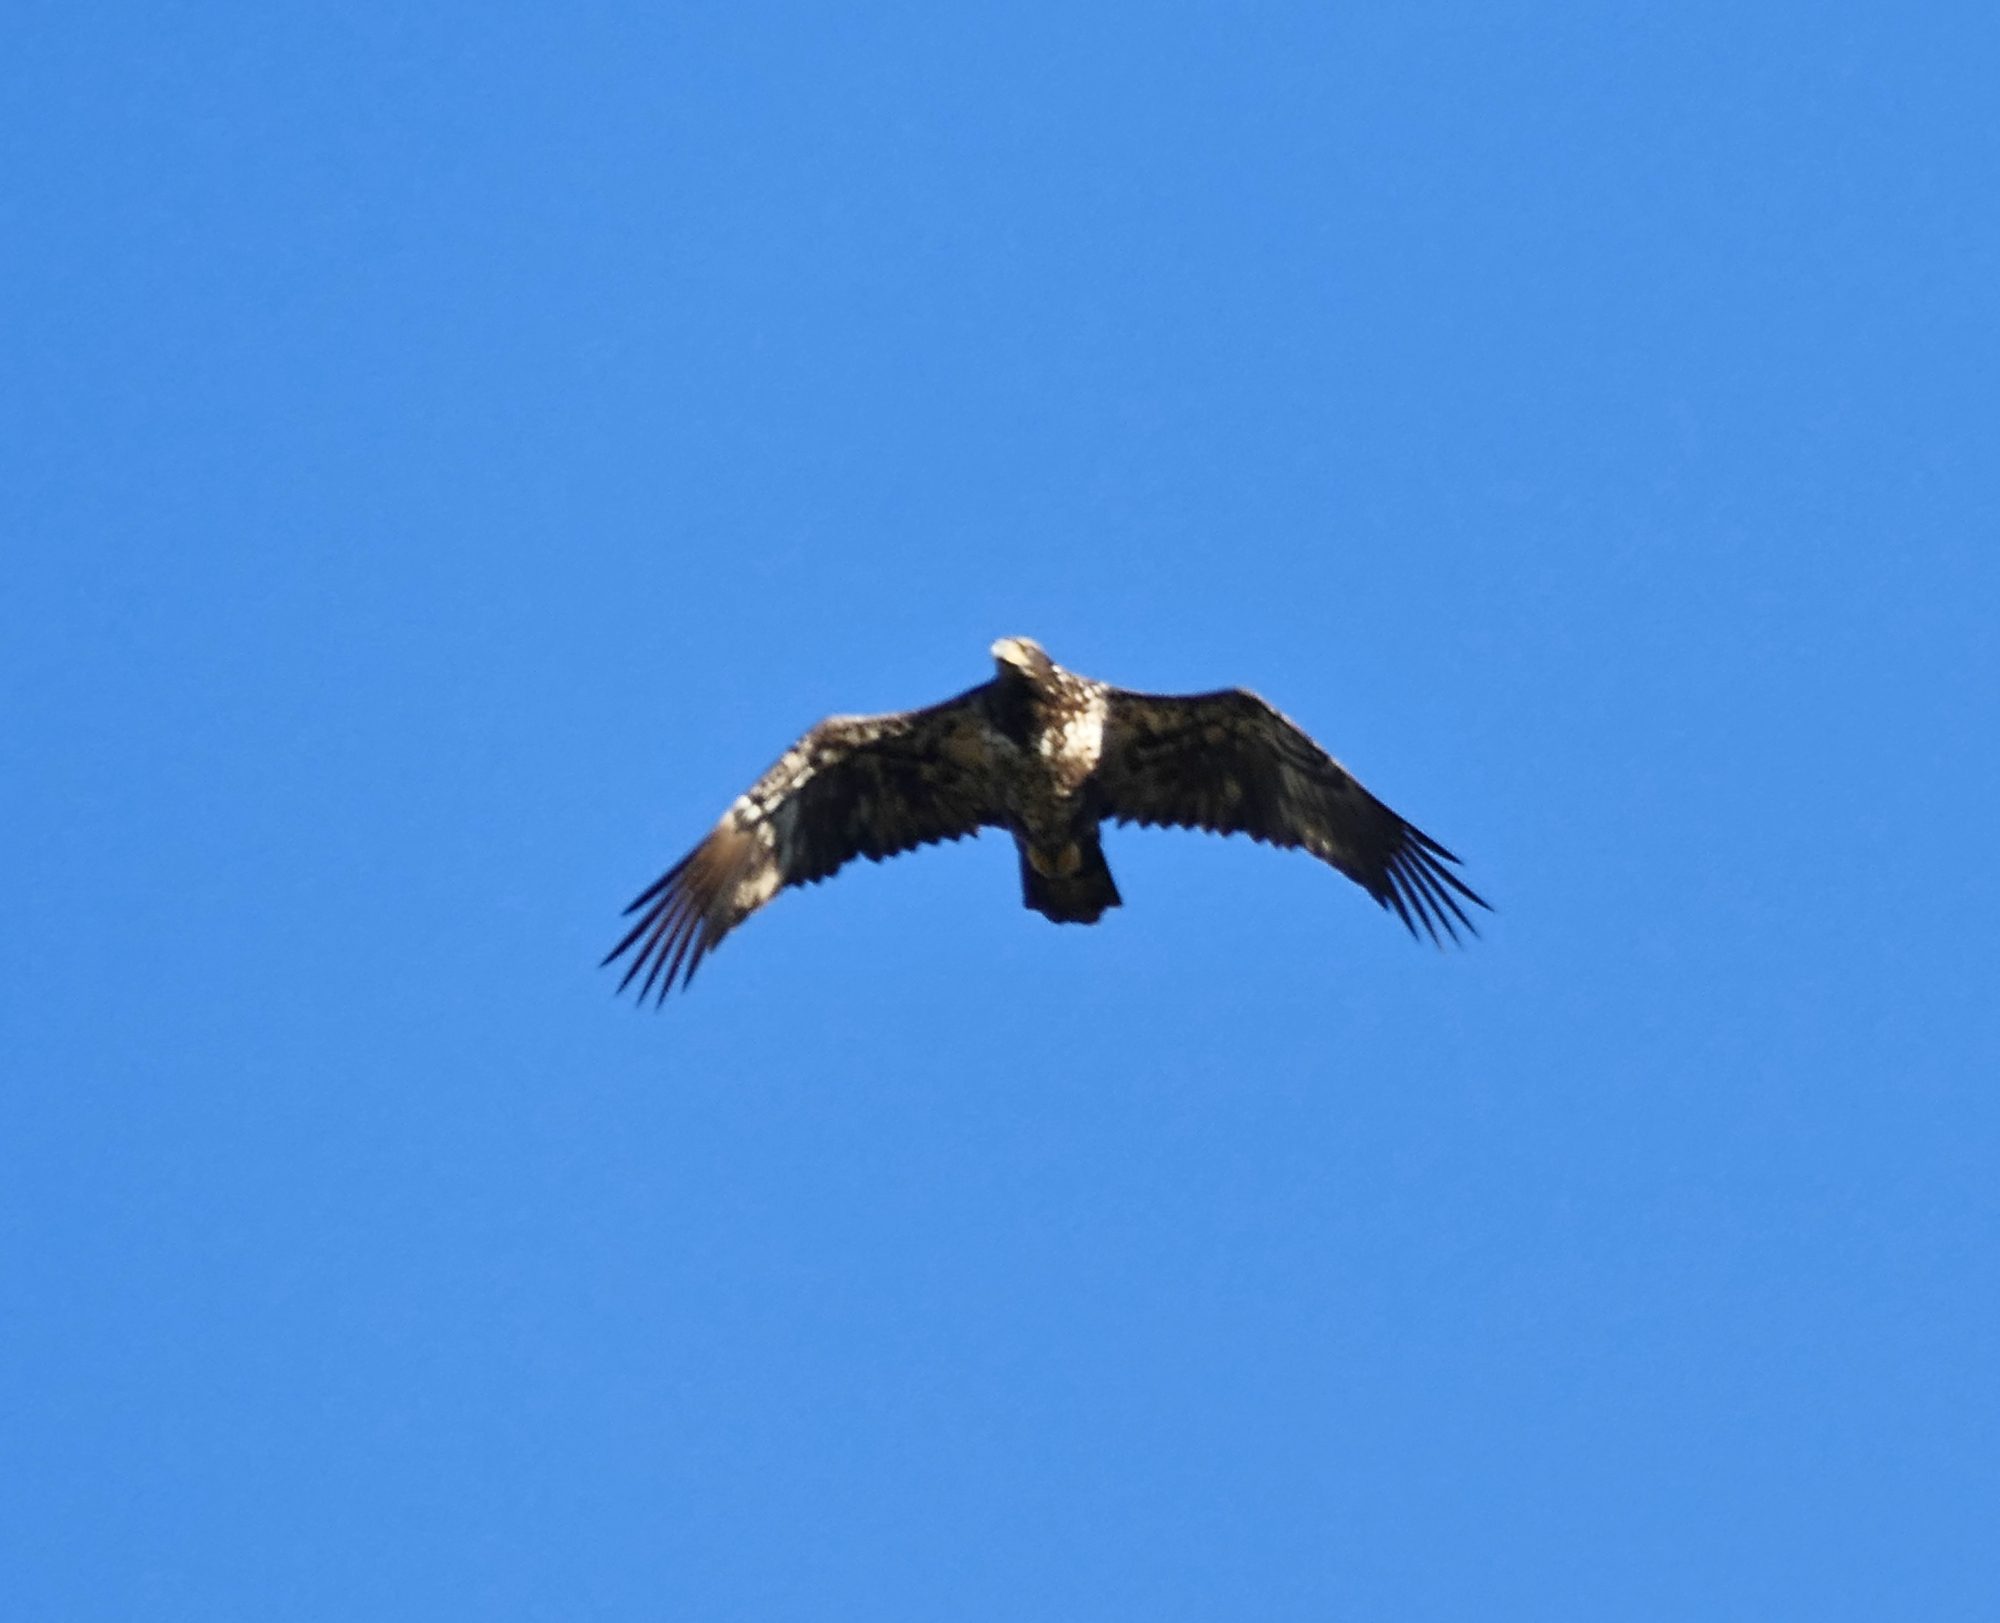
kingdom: Animalia
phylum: Chordata
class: Aves
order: Accipitriformes
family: Accipitridae
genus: Haliaeetus
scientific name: Haliaeetus leucocephalus
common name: Bald eagle
